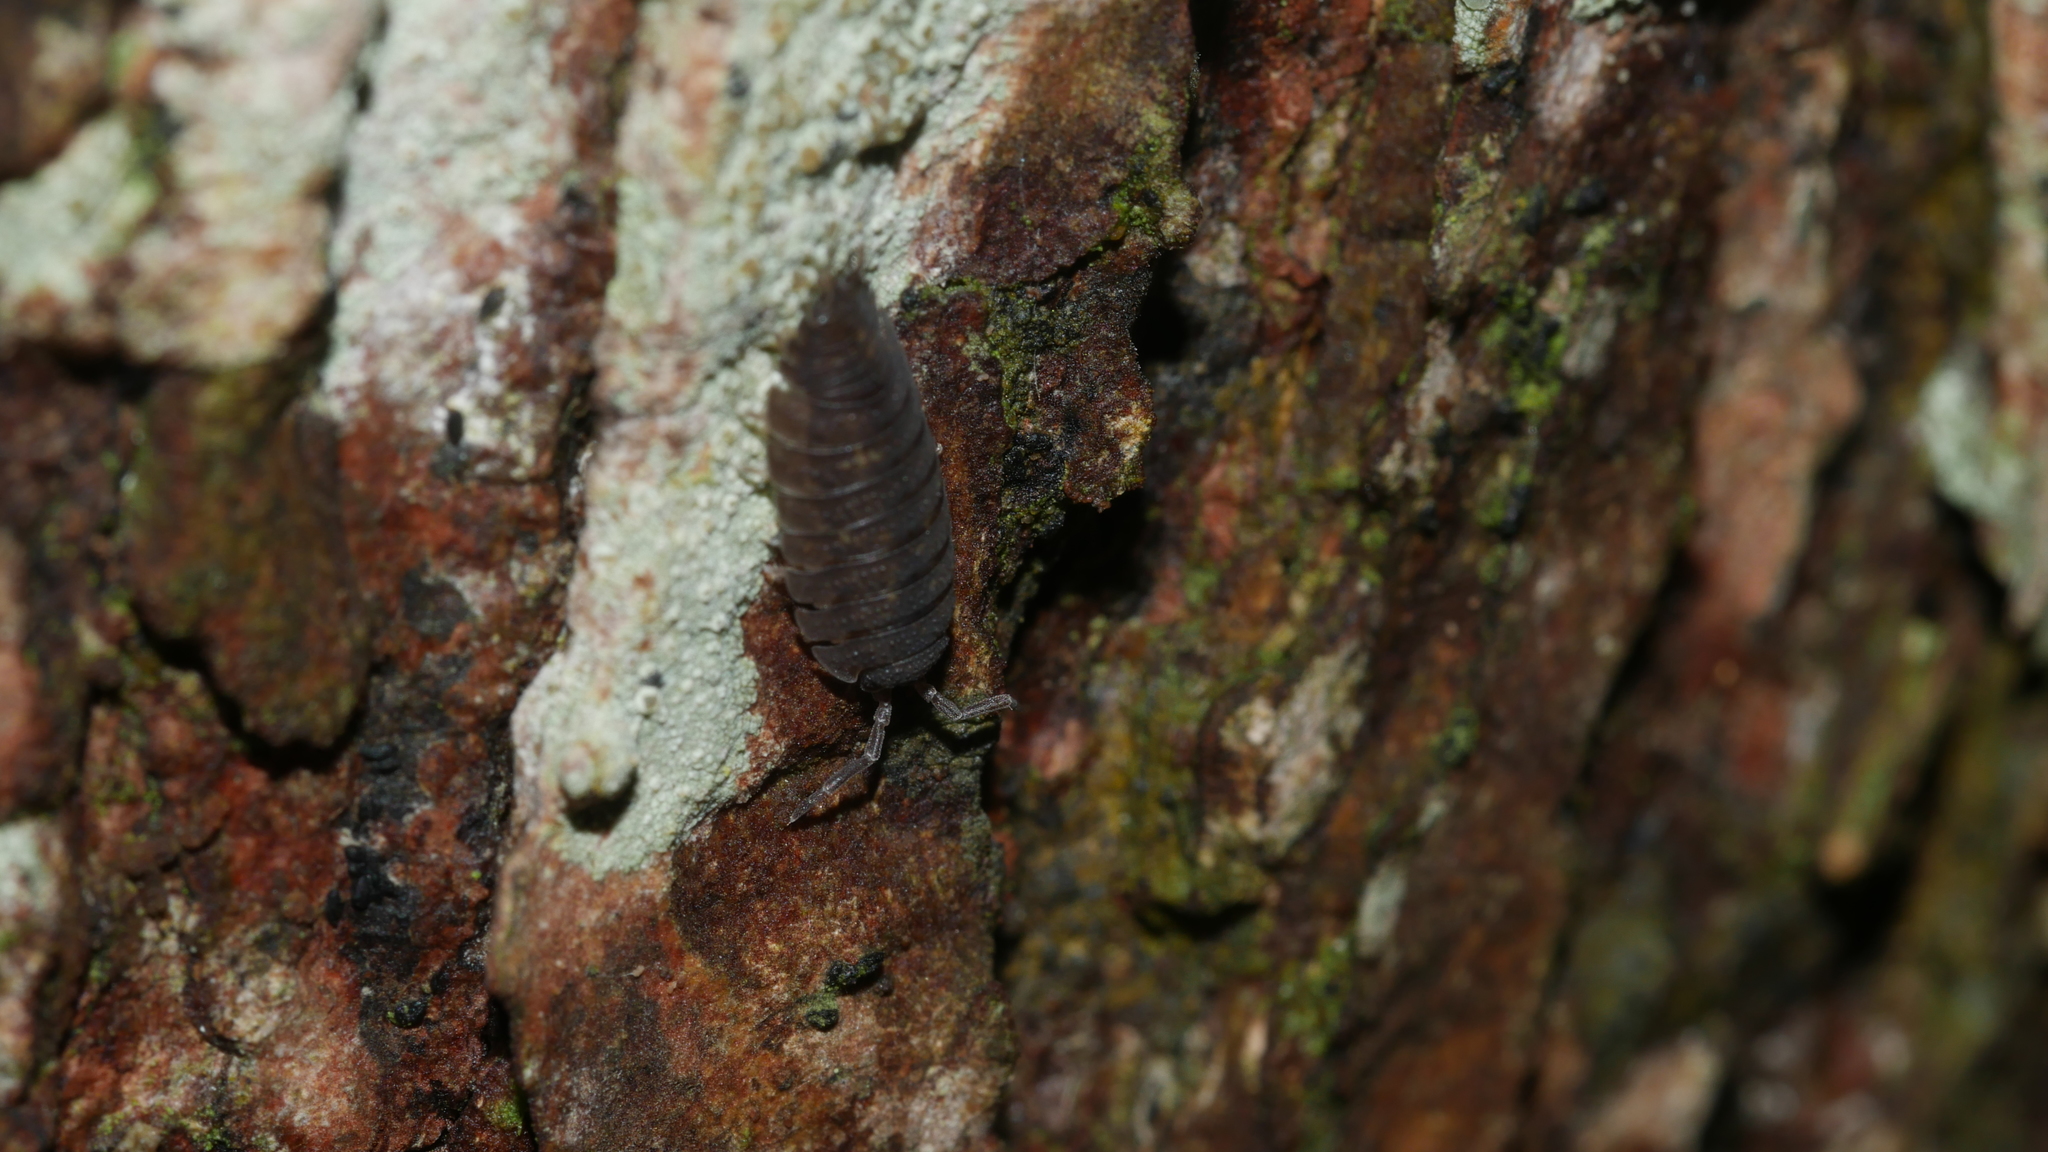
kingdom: Animalia
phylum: Arthropoda
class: Malacostraca
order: Isopoda
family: Porcellionidae
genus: Porcellio
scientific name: Porcellio scaber
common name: Common rough woodlouse
